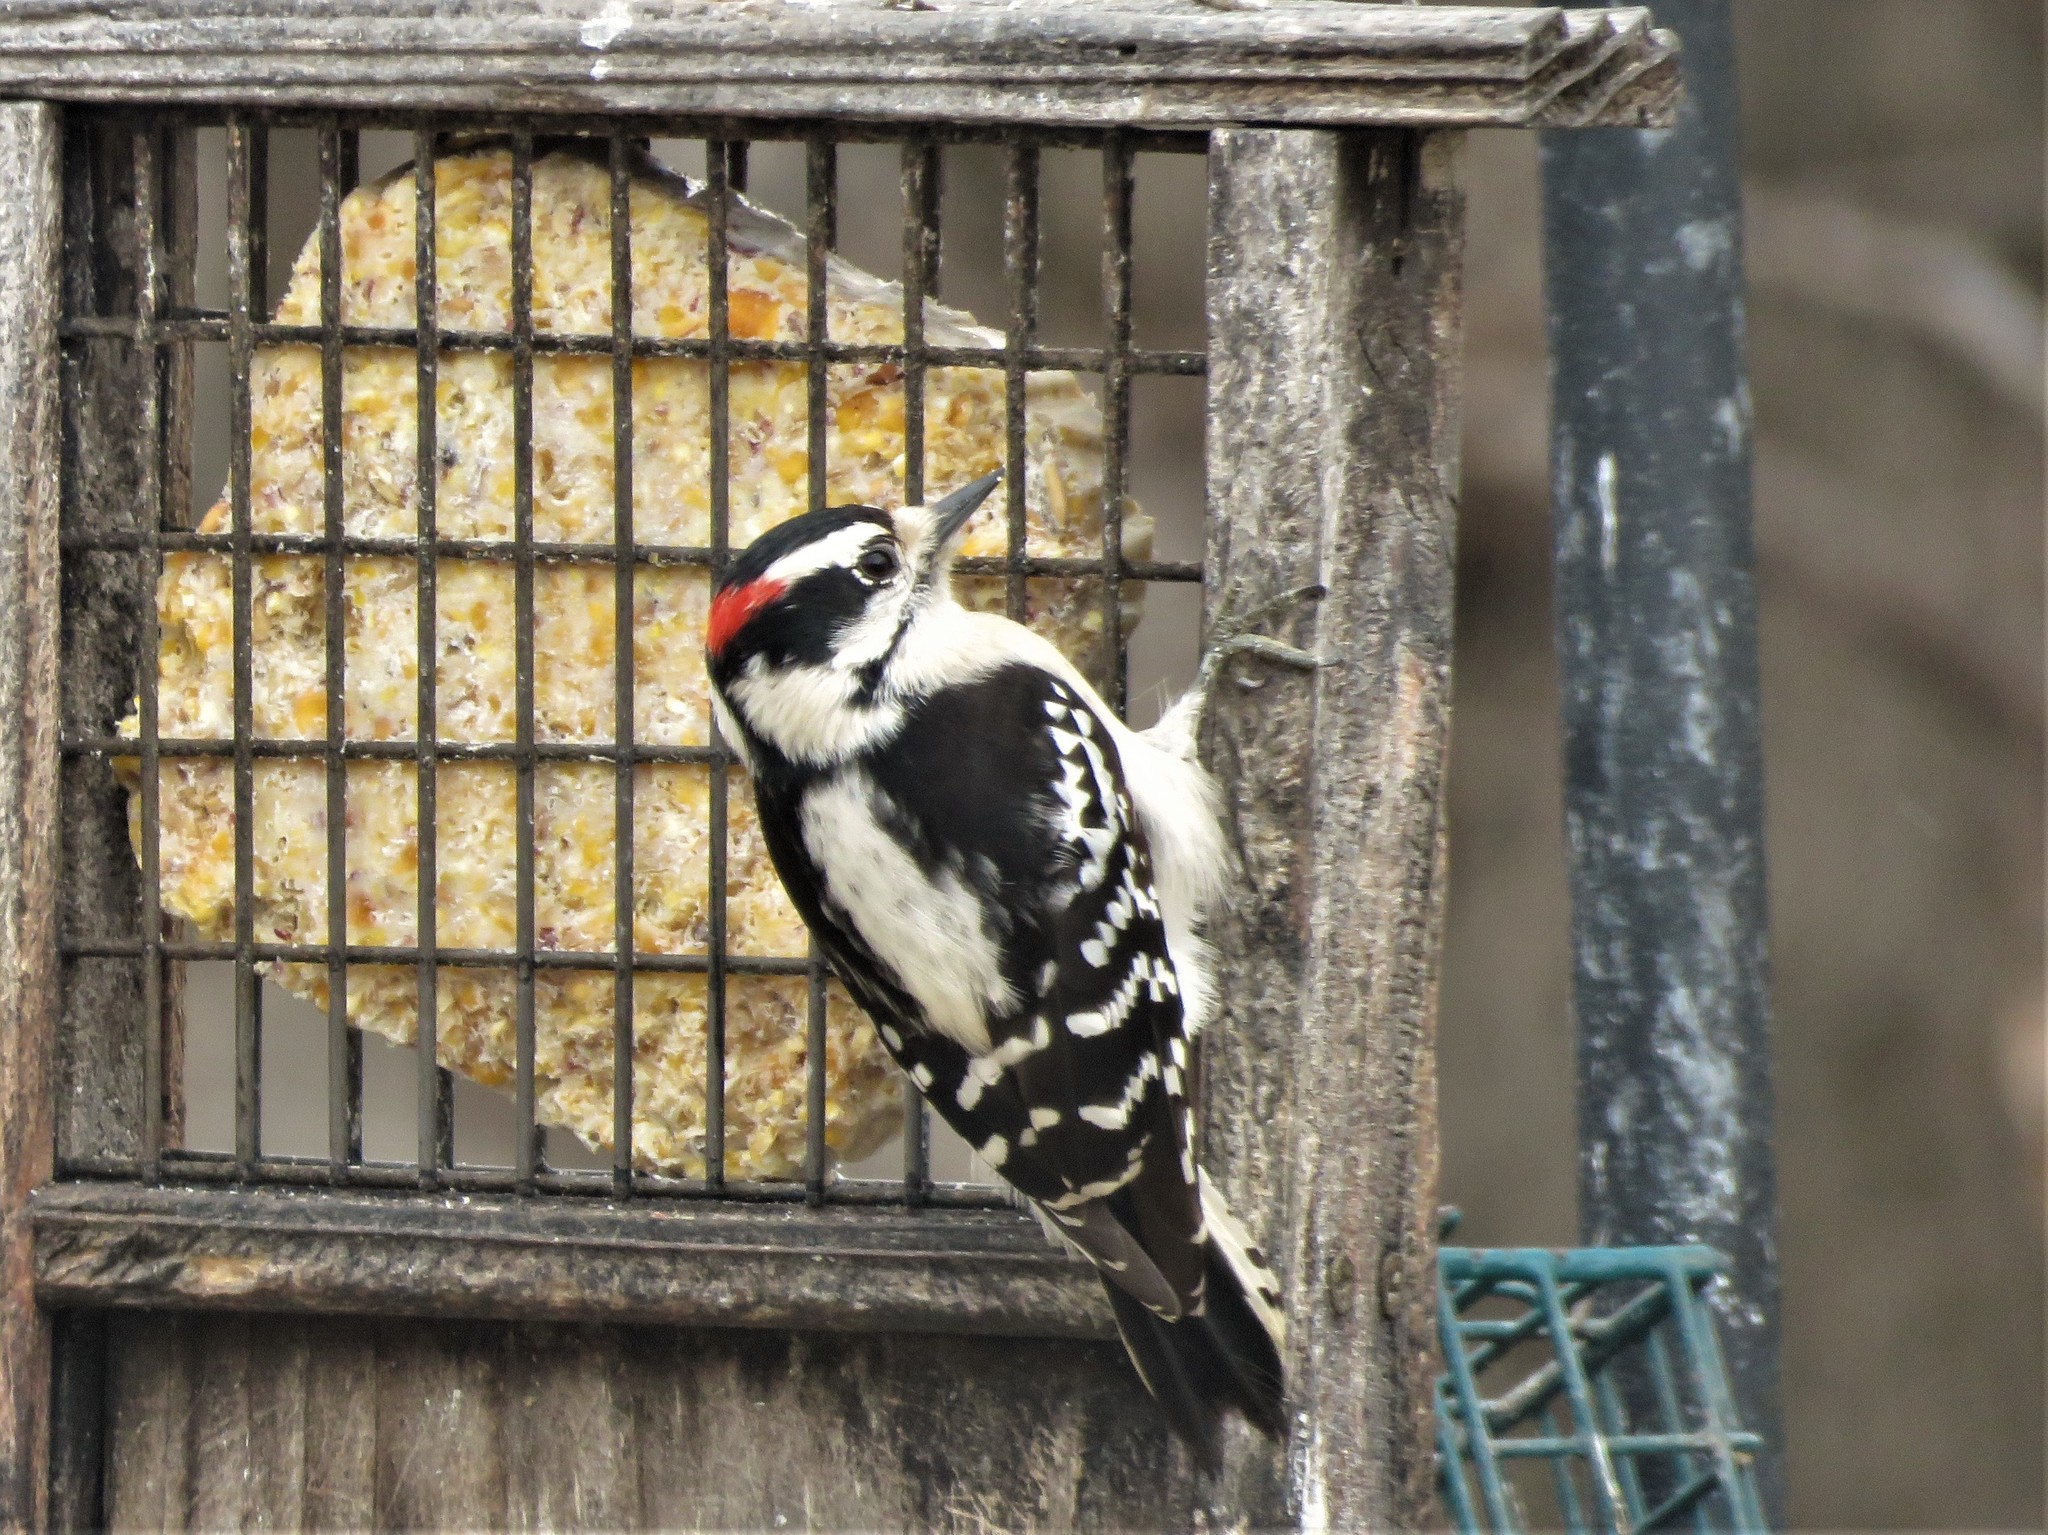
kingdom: Animalia
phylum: Chordata
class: Aves
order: Piciformes
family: Picidae
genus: Dryobates
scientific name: Dryobates pubescens
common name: Downy woodpecker
